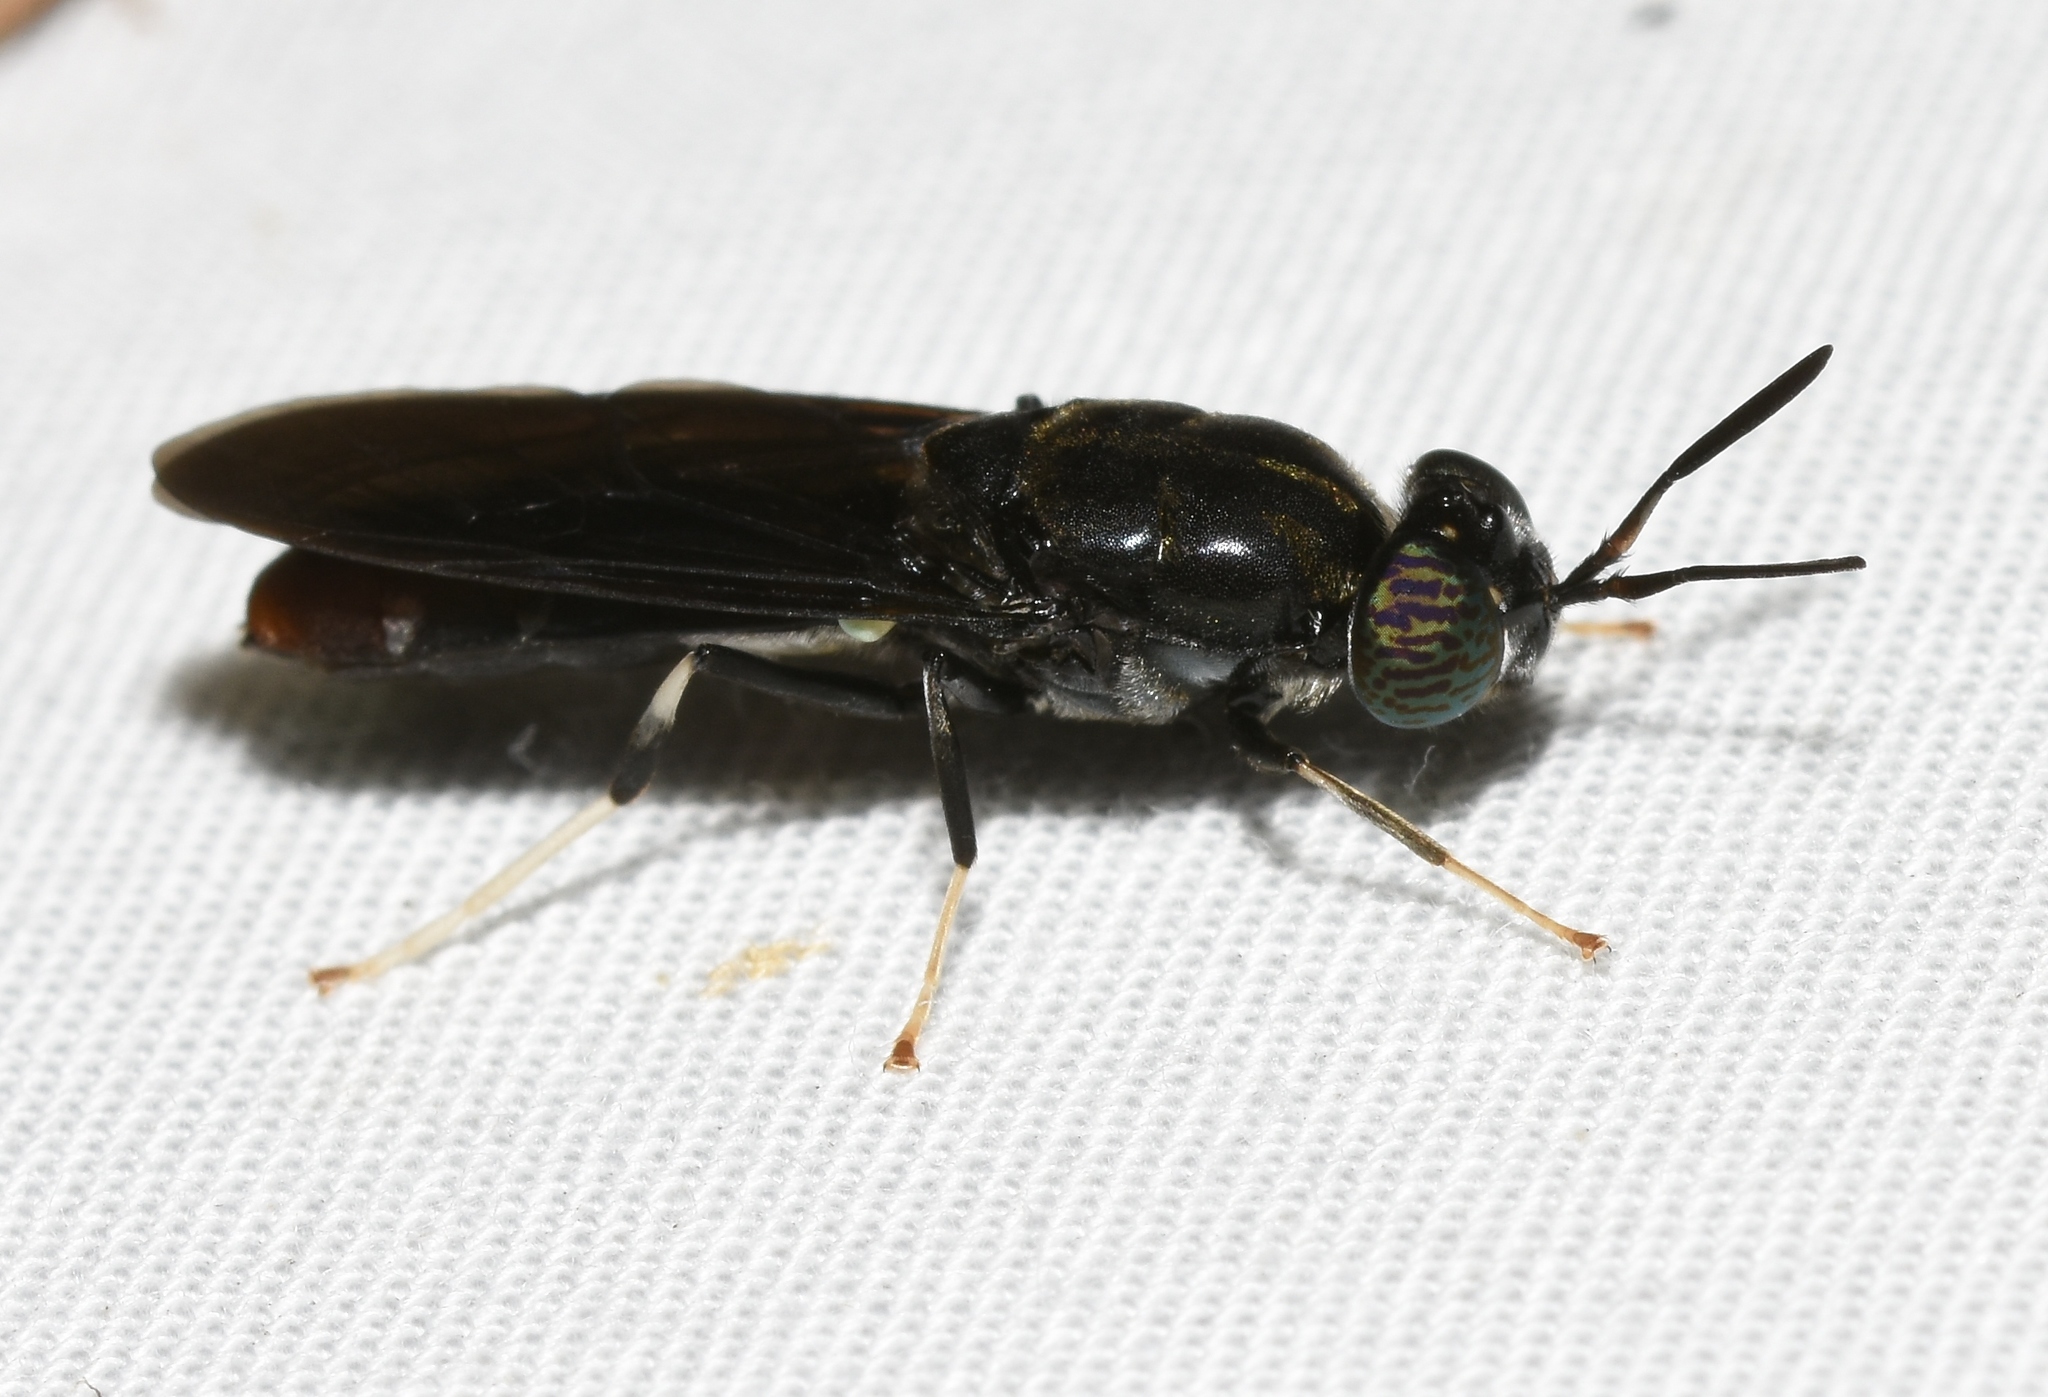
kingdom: Animalia
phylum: Arthropoda
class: Insecta
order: Diptera
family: Stratiomyidae
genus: Hermetia
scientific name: Hermetia illucens
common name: Black soldier fly
